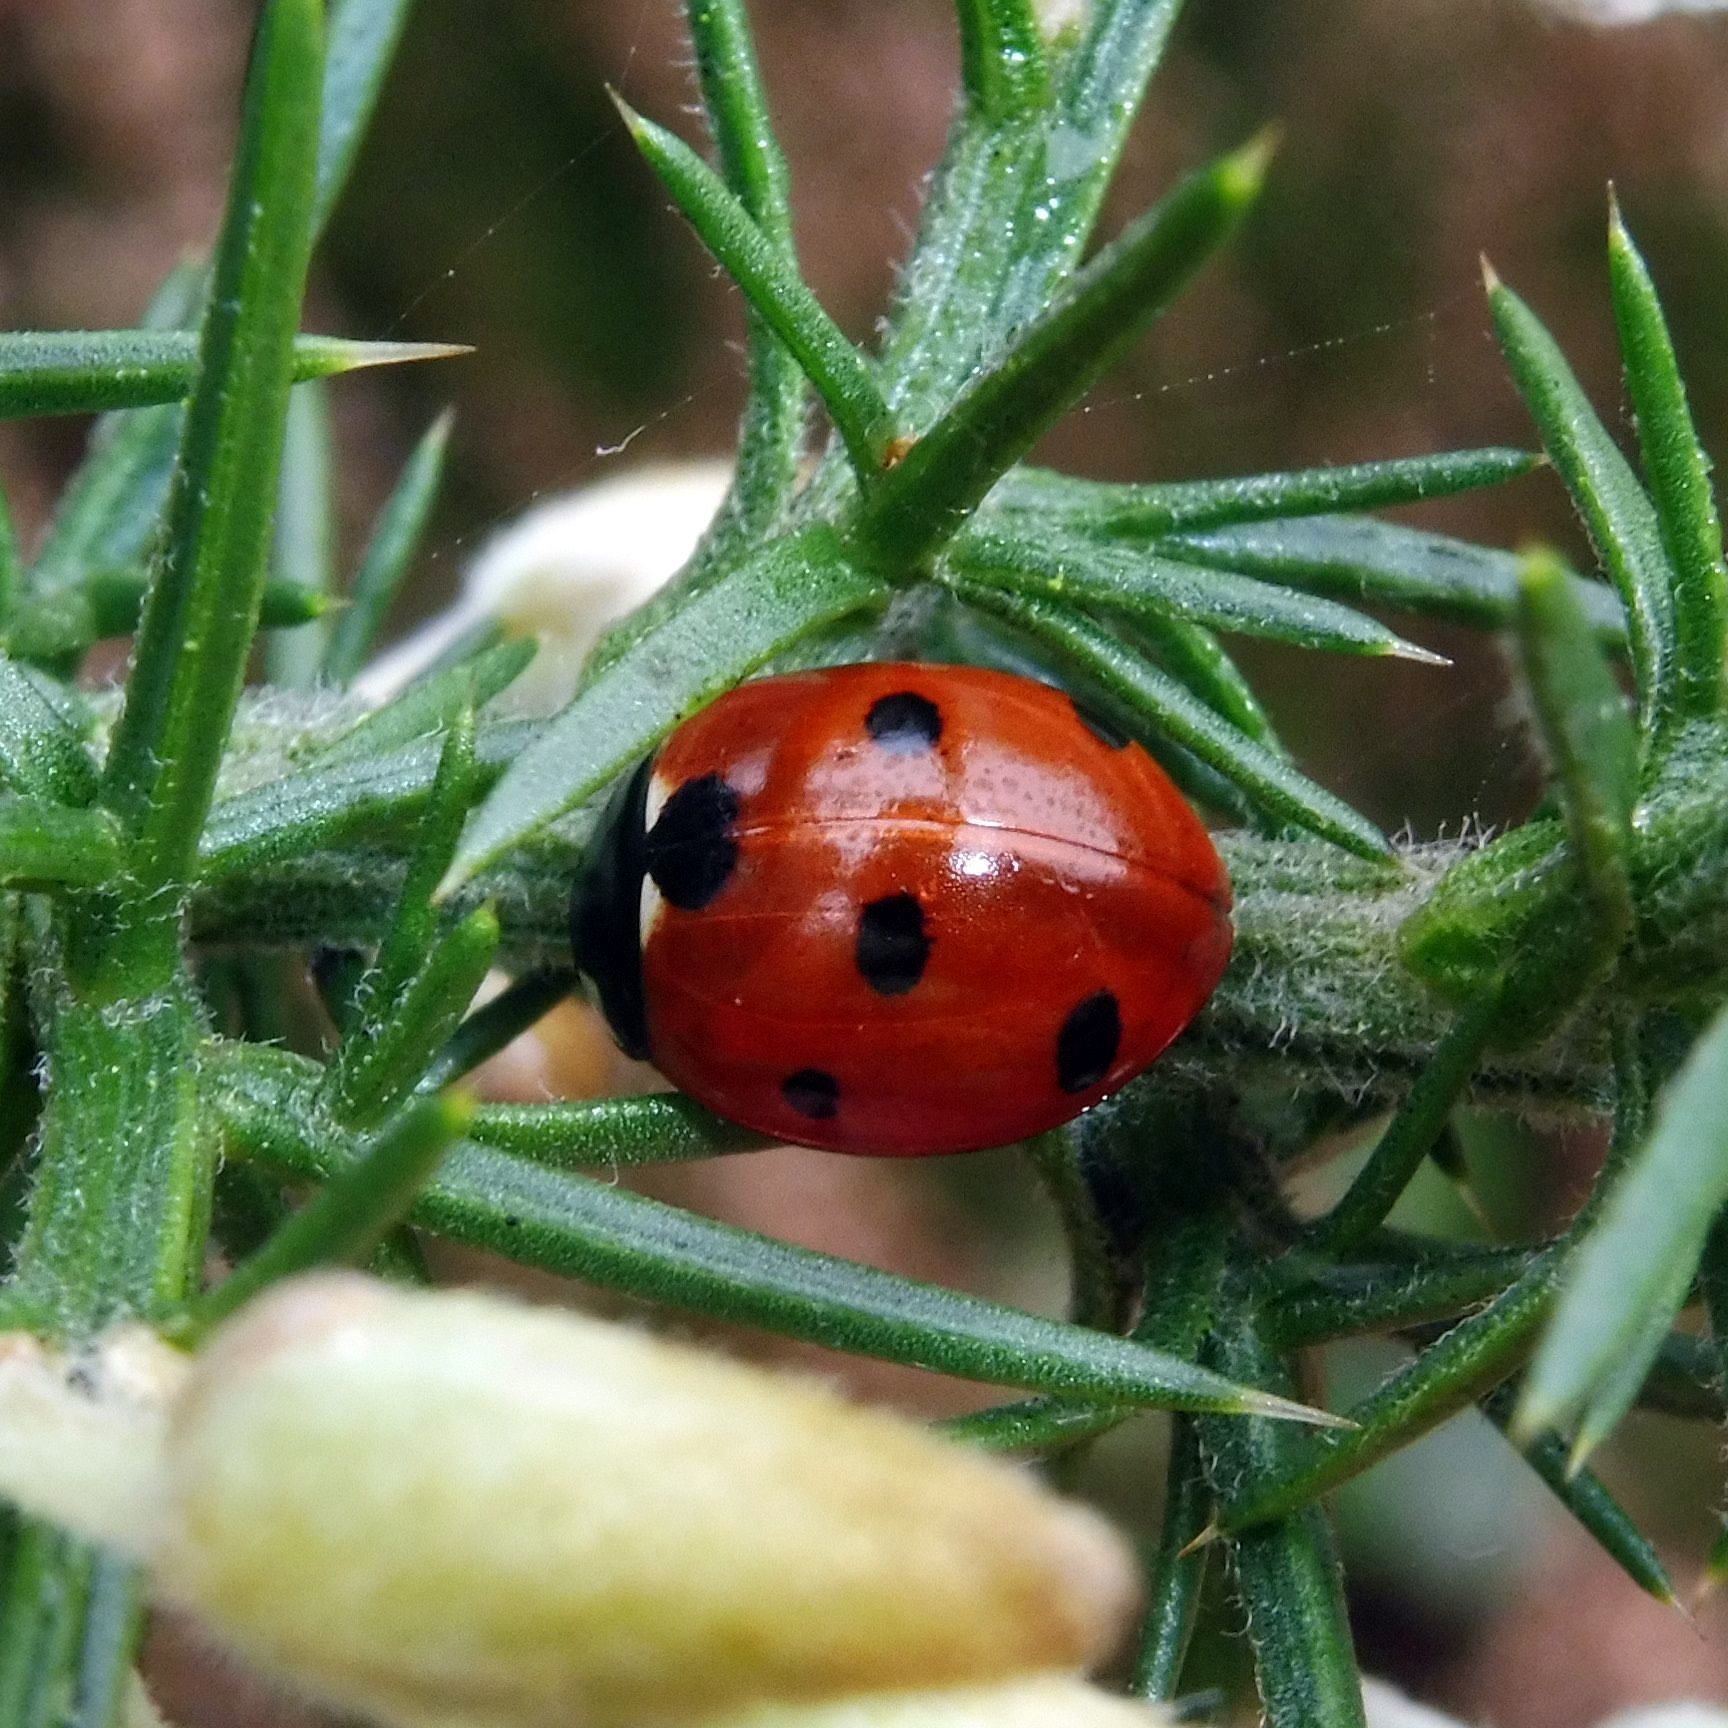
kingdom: Animalia
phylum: Arthropoda
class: Insecta
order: Coleoptera
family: Coccinellidae
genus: Coccinella
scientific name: Coccinella septempunctata
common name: Sevenspotted lady beetle
